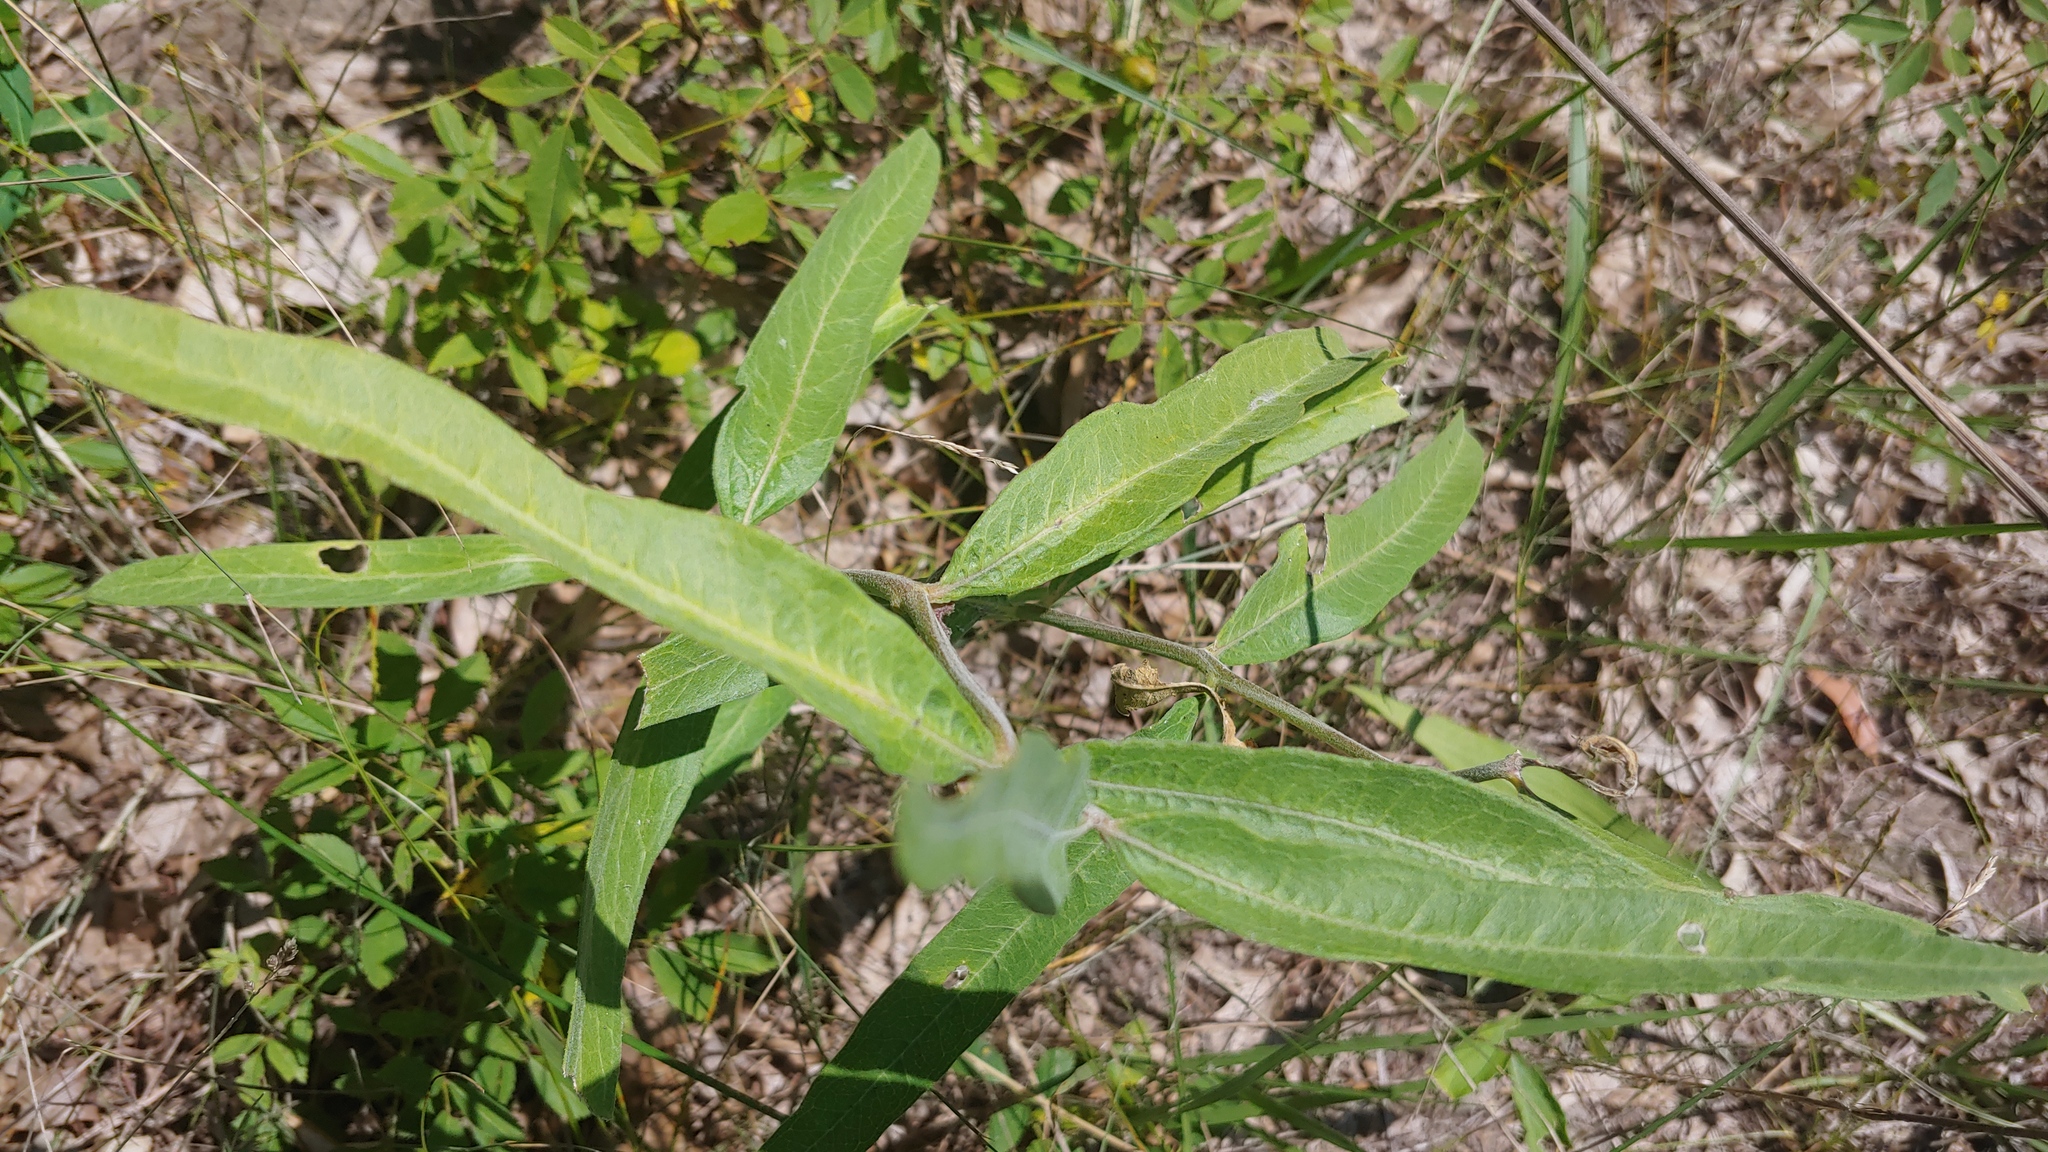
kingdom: Plantae
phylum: Tracheophyta
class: Magnoliopsida
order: Gentianales
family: Apocynaceae
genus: Asclepias
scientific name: Asclepias viridiflora
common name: Green comet milkweed
